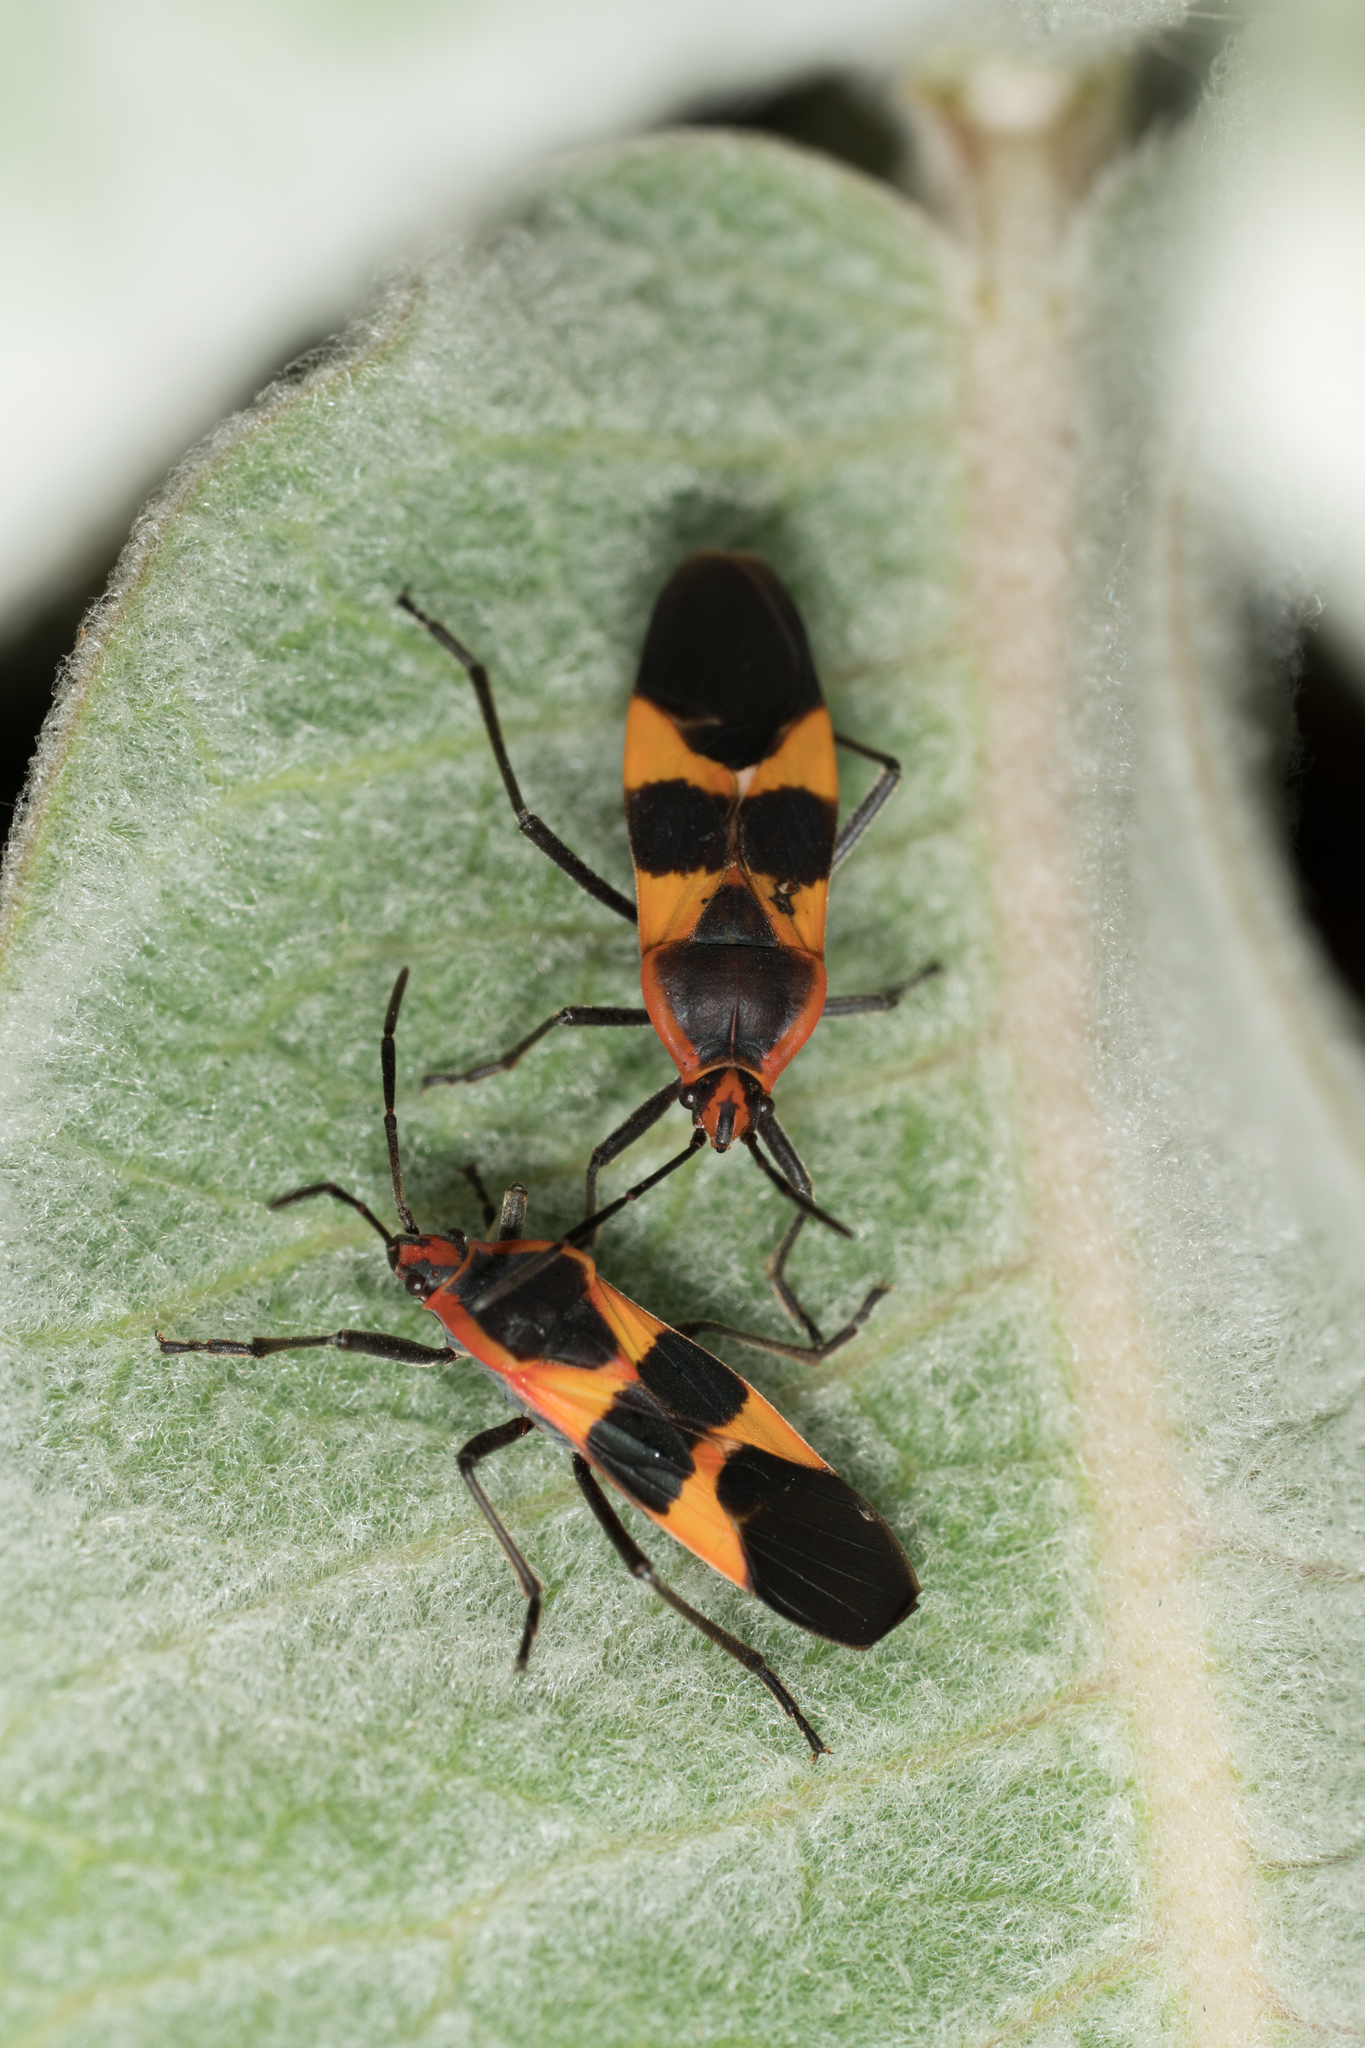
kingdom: Animalia
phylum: Arthropoda
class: Insecta
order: Hemiptera
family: Lygaeidae
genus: Oncopeltus
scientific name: Oncopeltus fasciatus
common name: Large milkweed bug
